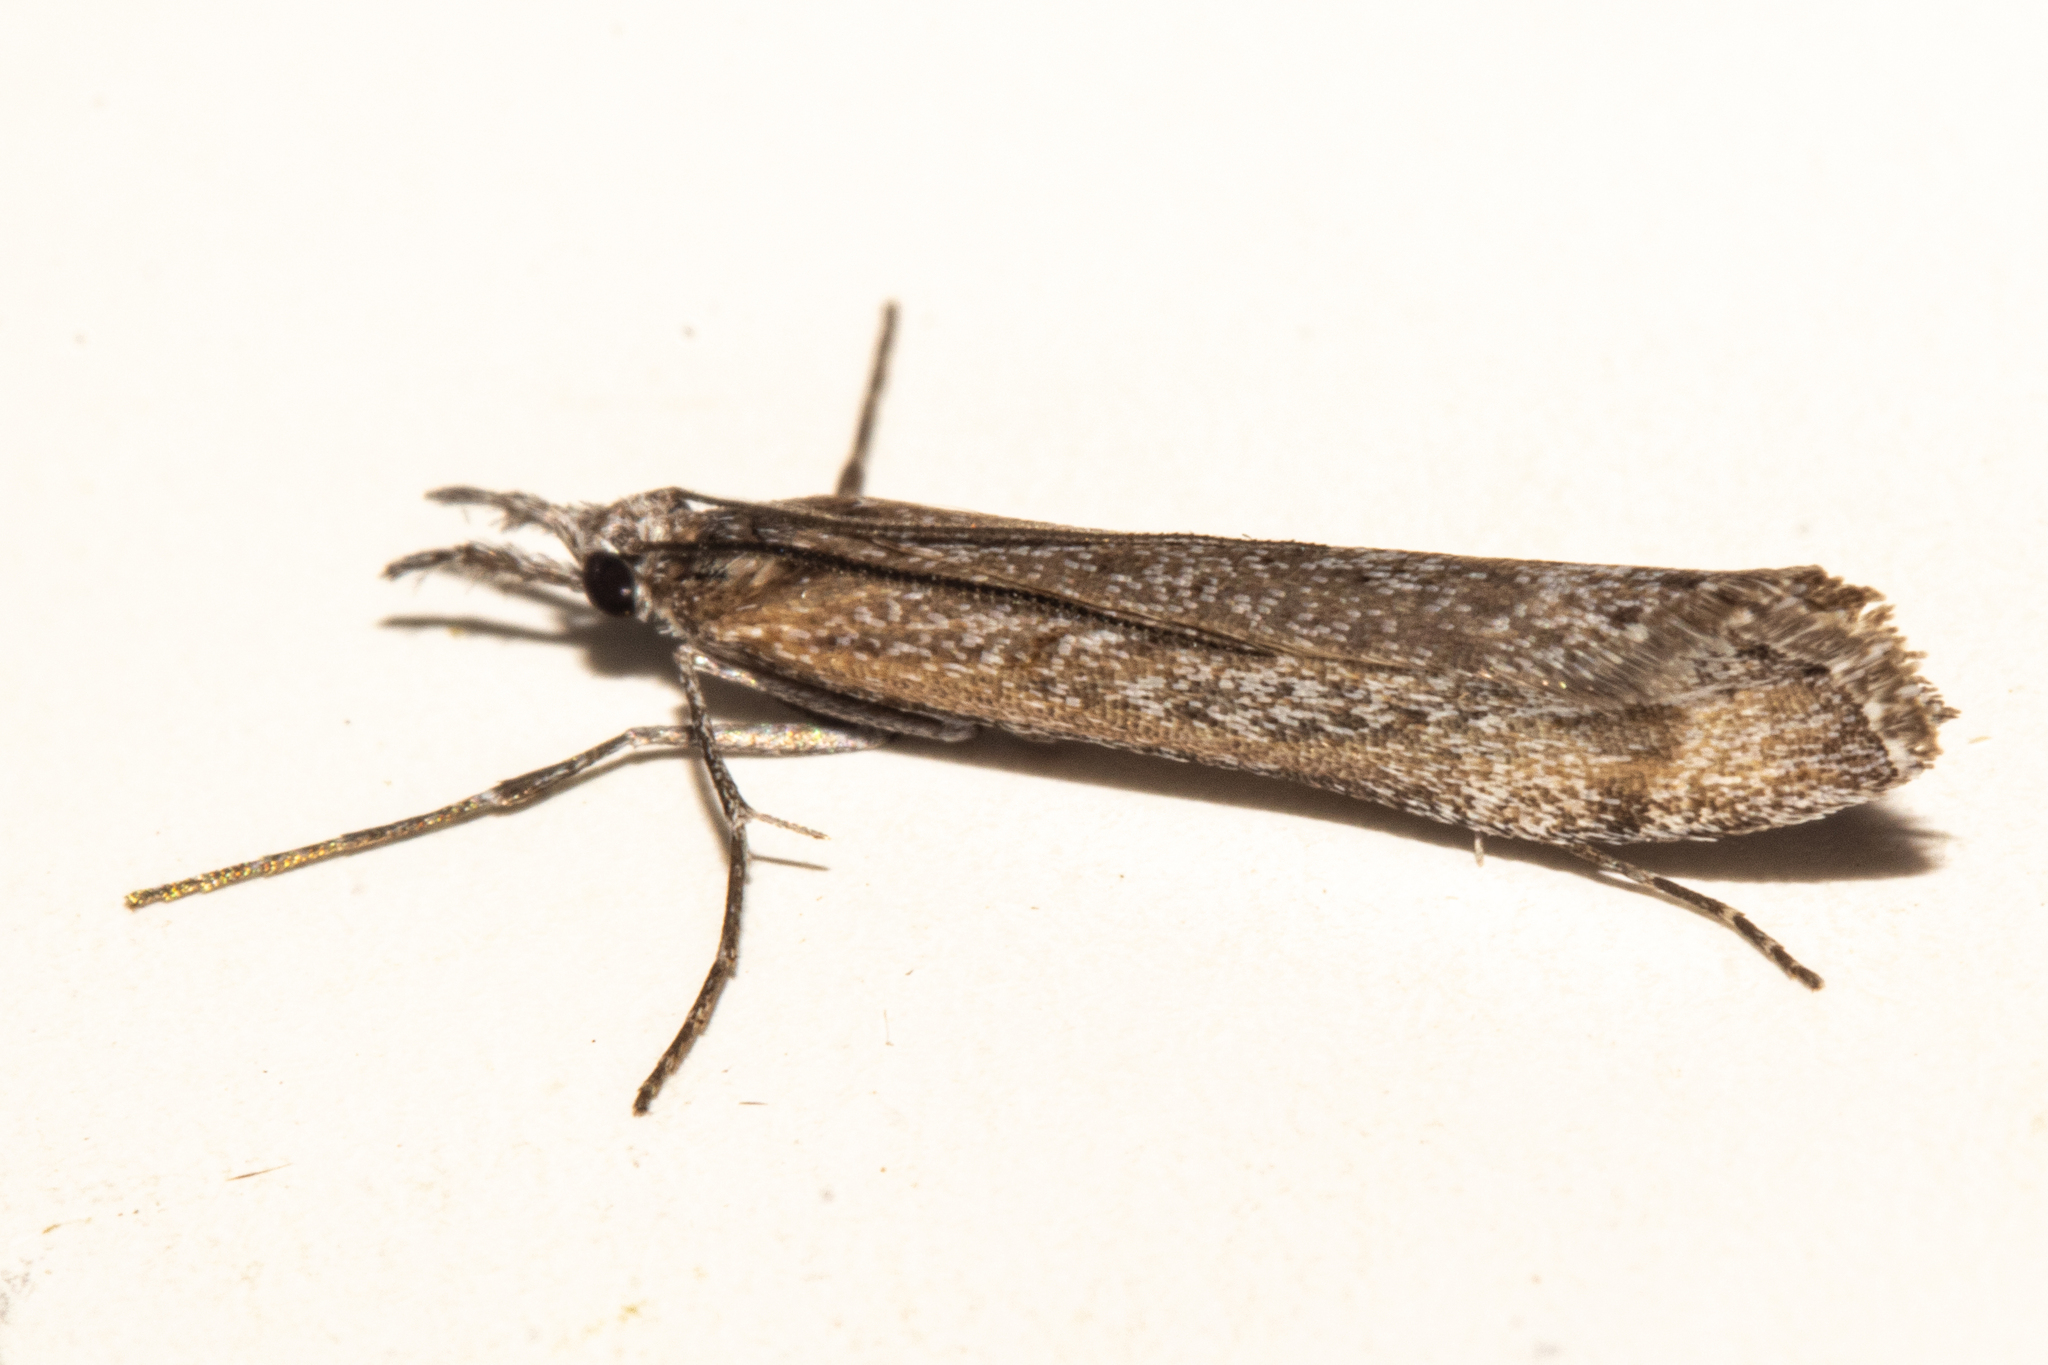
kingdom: Animalia
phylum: Arthropoda
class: Insecta
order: Lepidoptera
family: Crambidae
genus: Orocrambus
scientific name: Orocrambus cyclopicus
